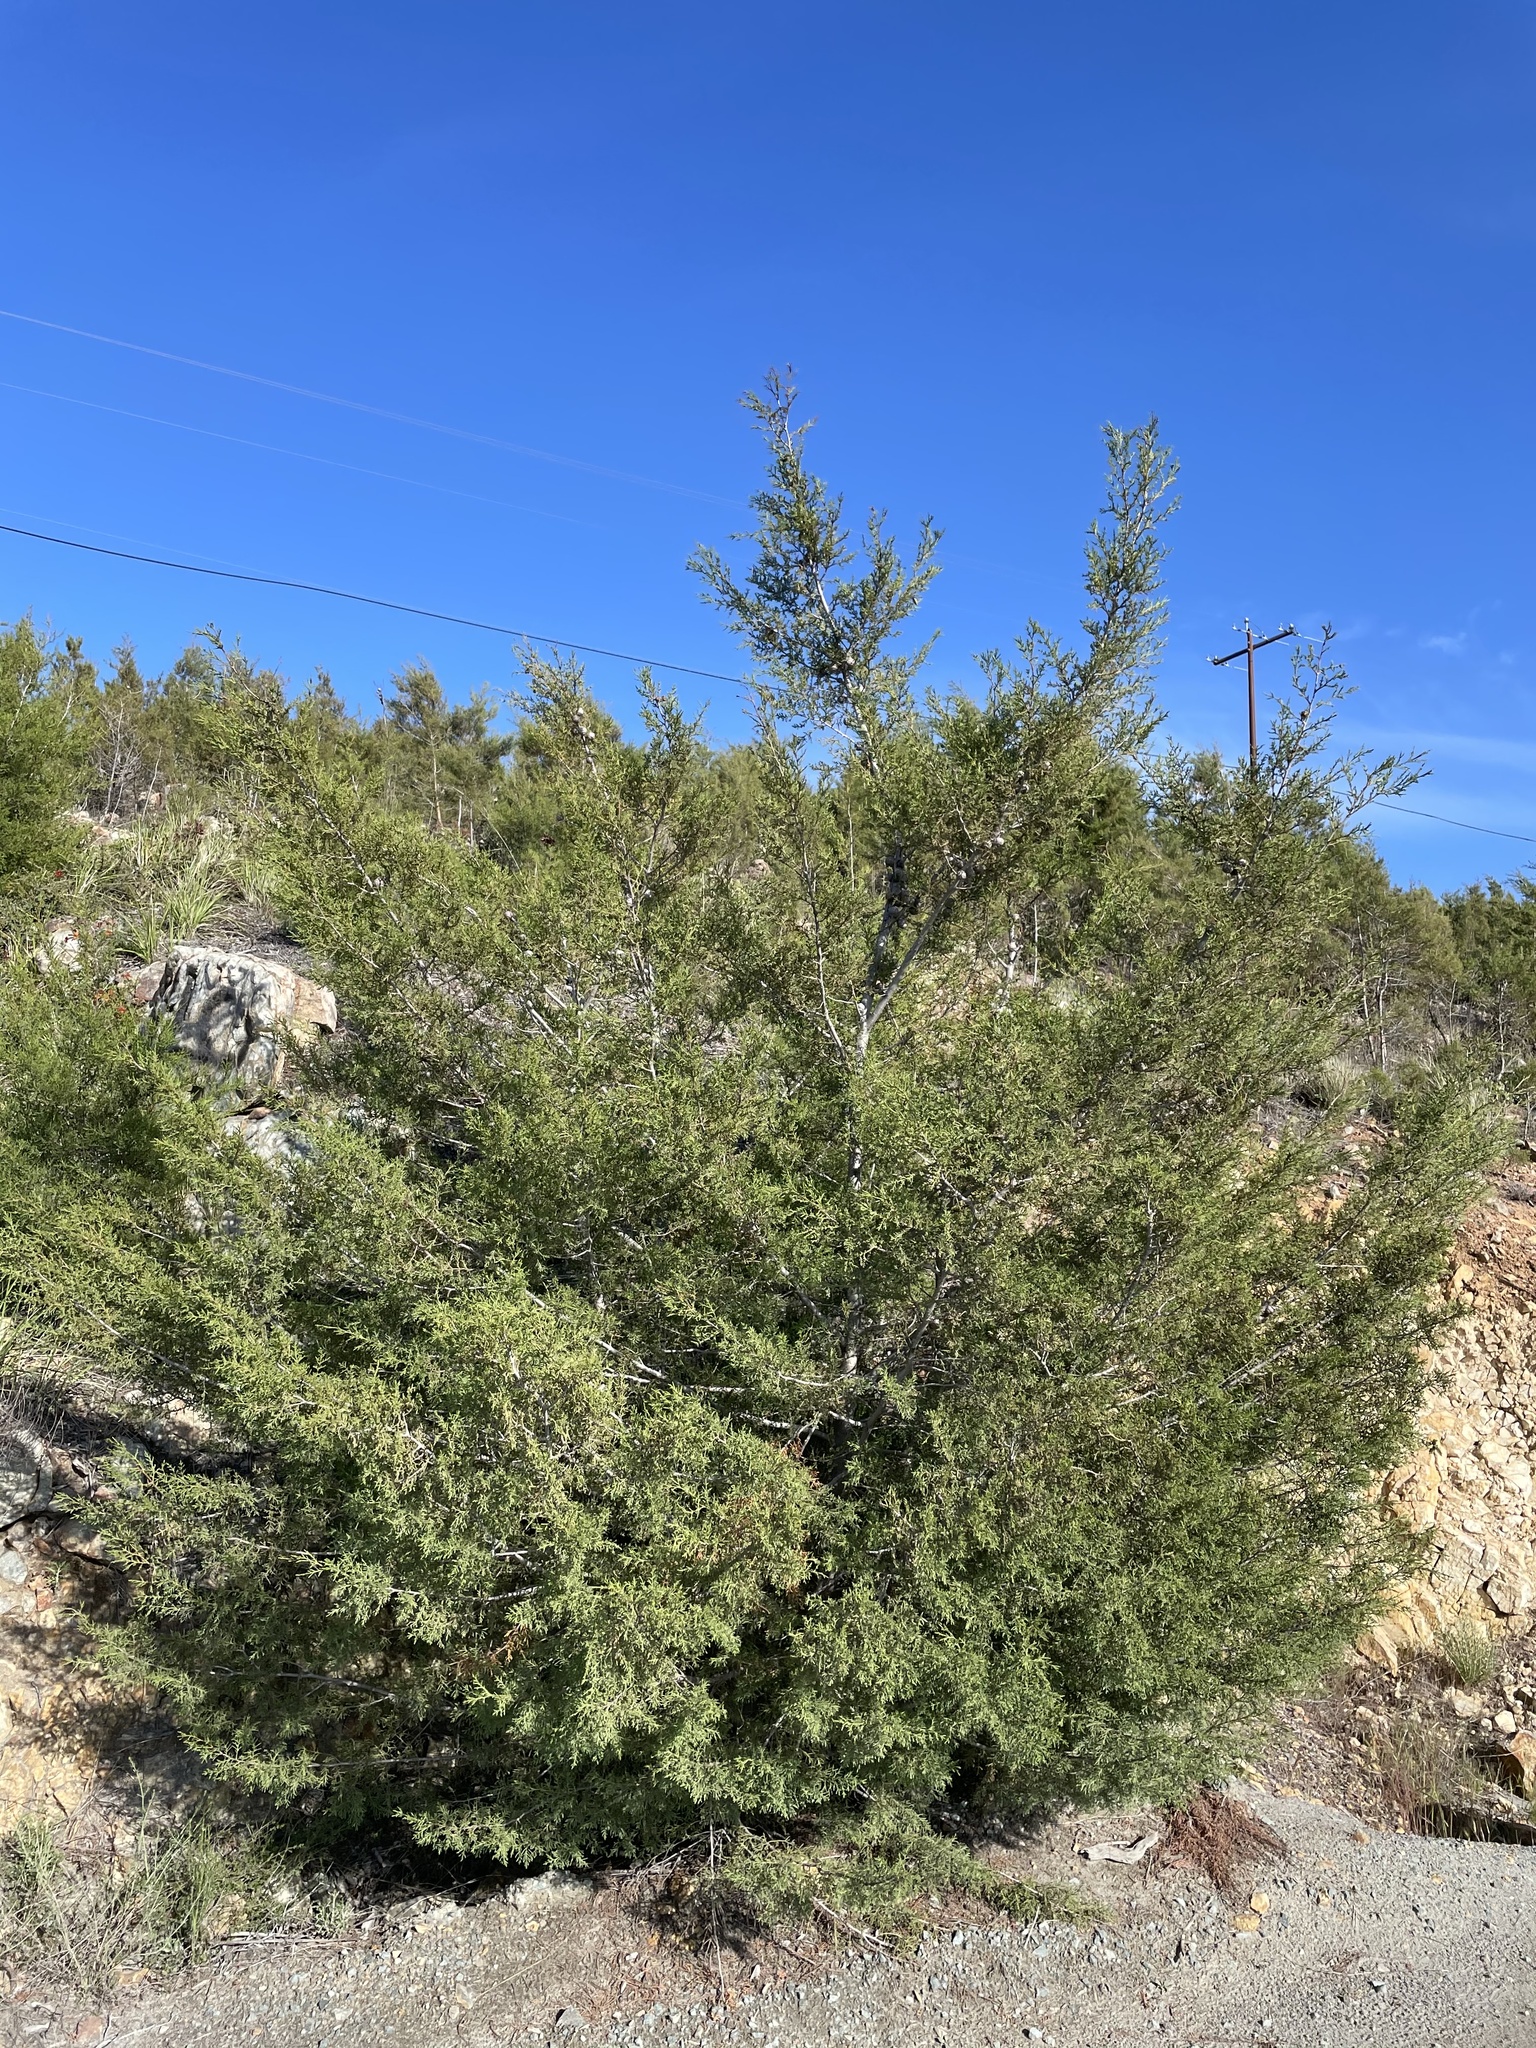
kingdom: Plantae
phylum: Tracheophyta
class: Pinopsida
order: Pinales
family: Cupressaceae
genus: Cupressus
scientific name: Cupressus guadalupensis
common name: Forbes cypress
